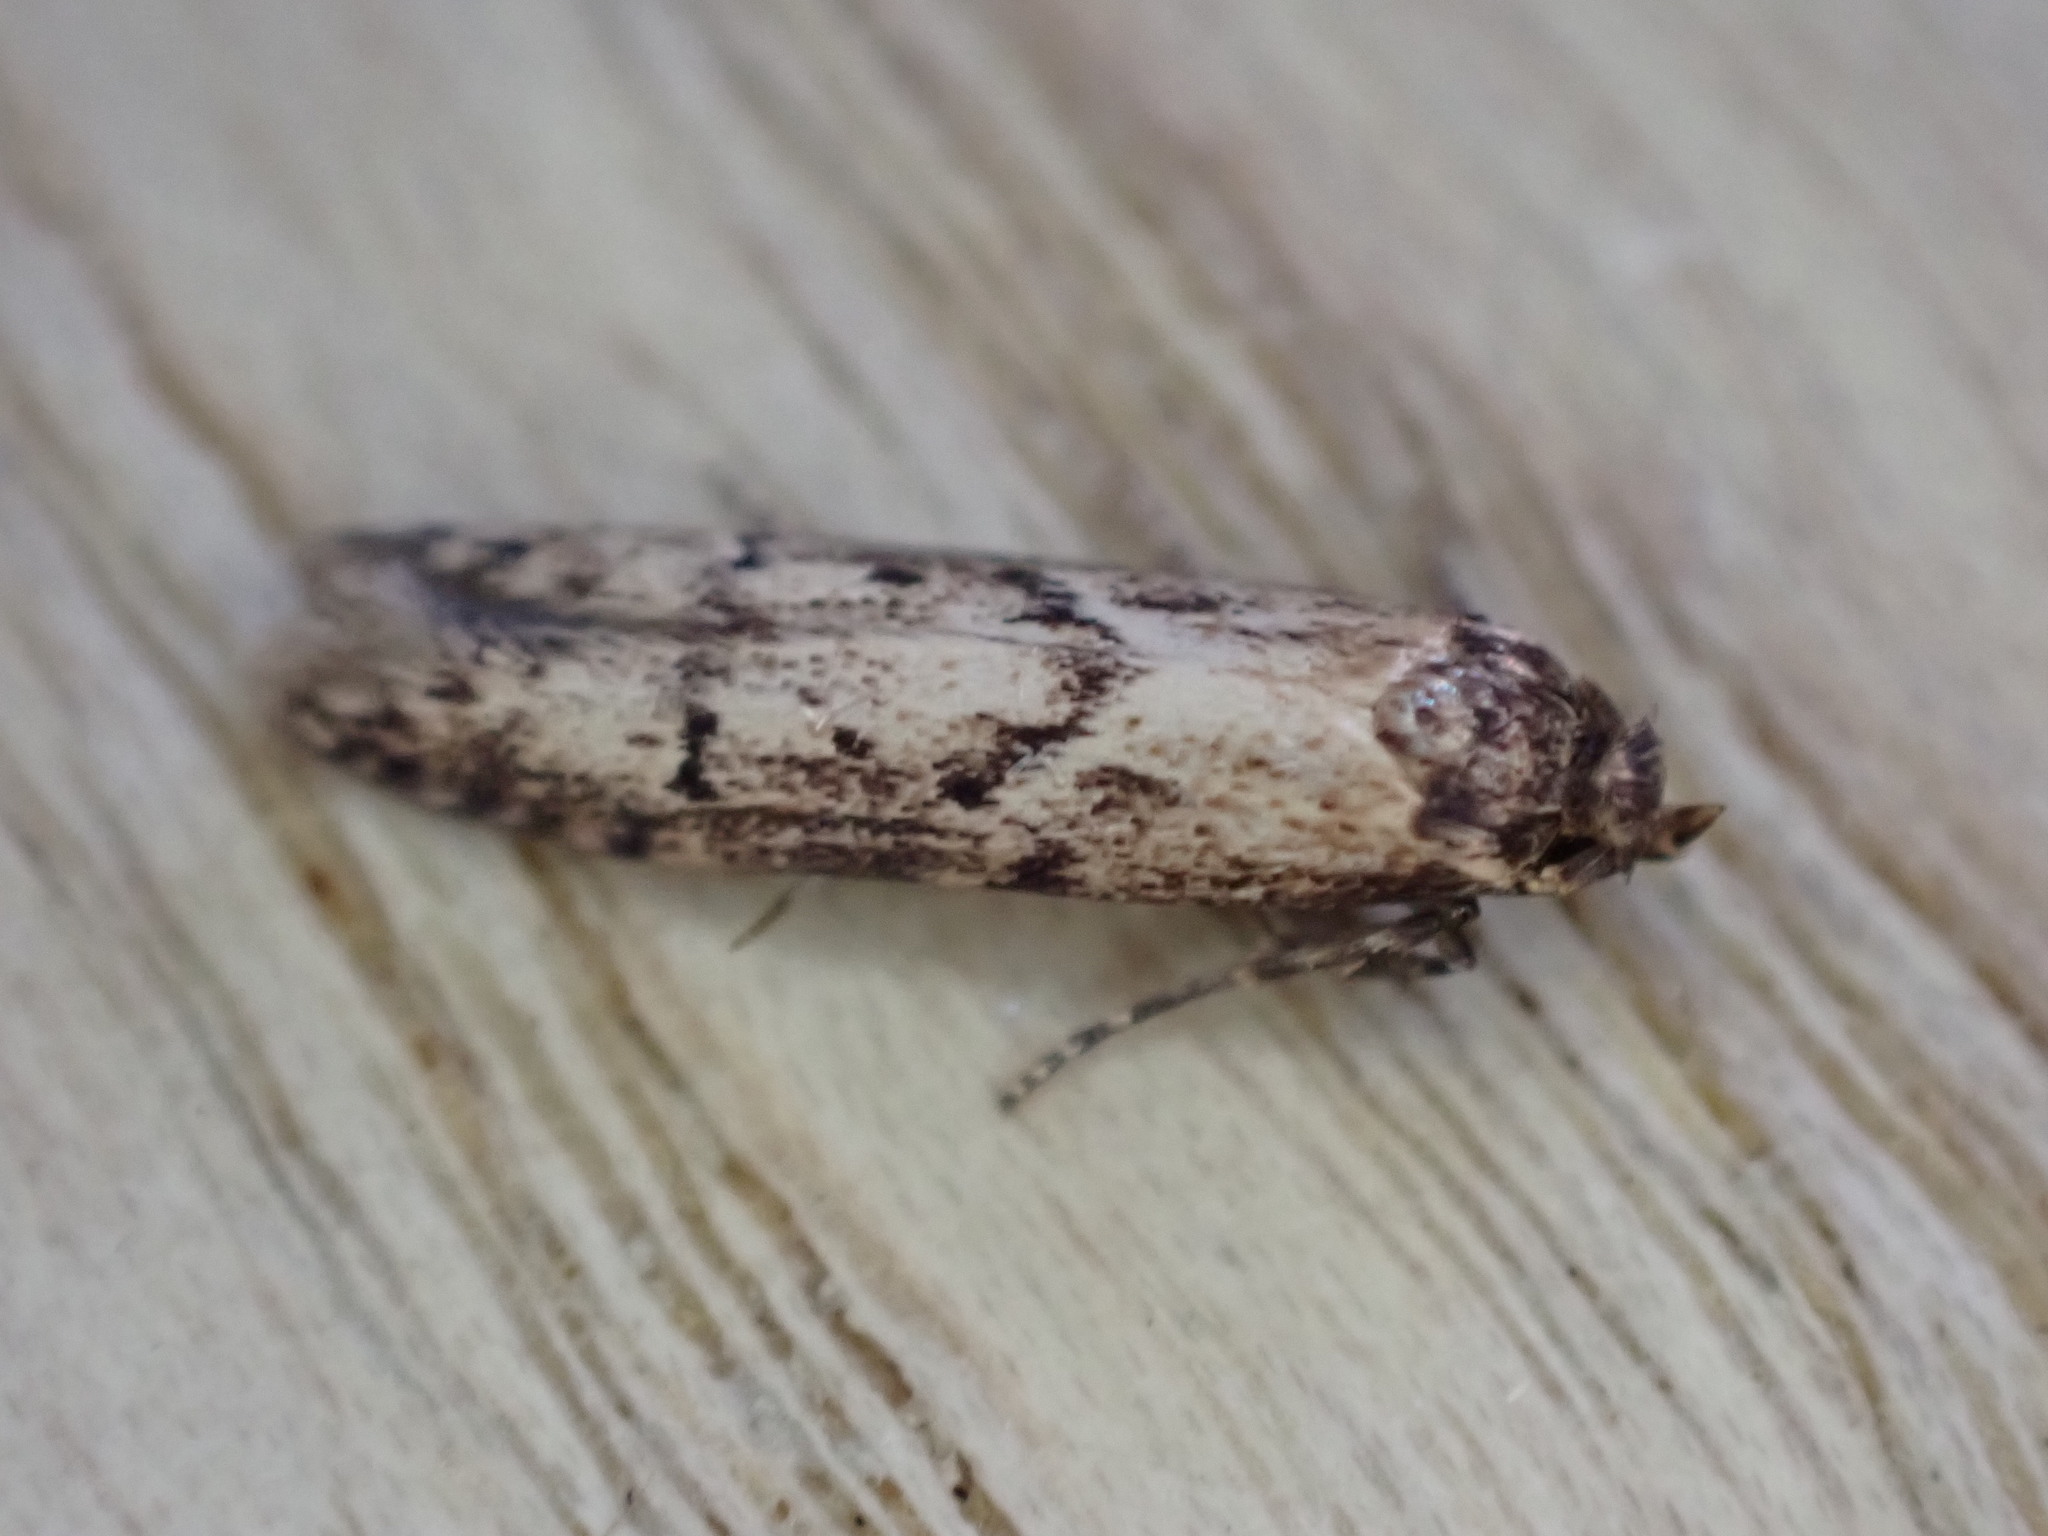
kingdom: Animalia
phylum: Arthropoda
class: Insecta
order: Lepidoptera
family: Blastobasidae
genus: Blastobasis
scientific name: Blastobasis adustella
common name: Dingy dowd
